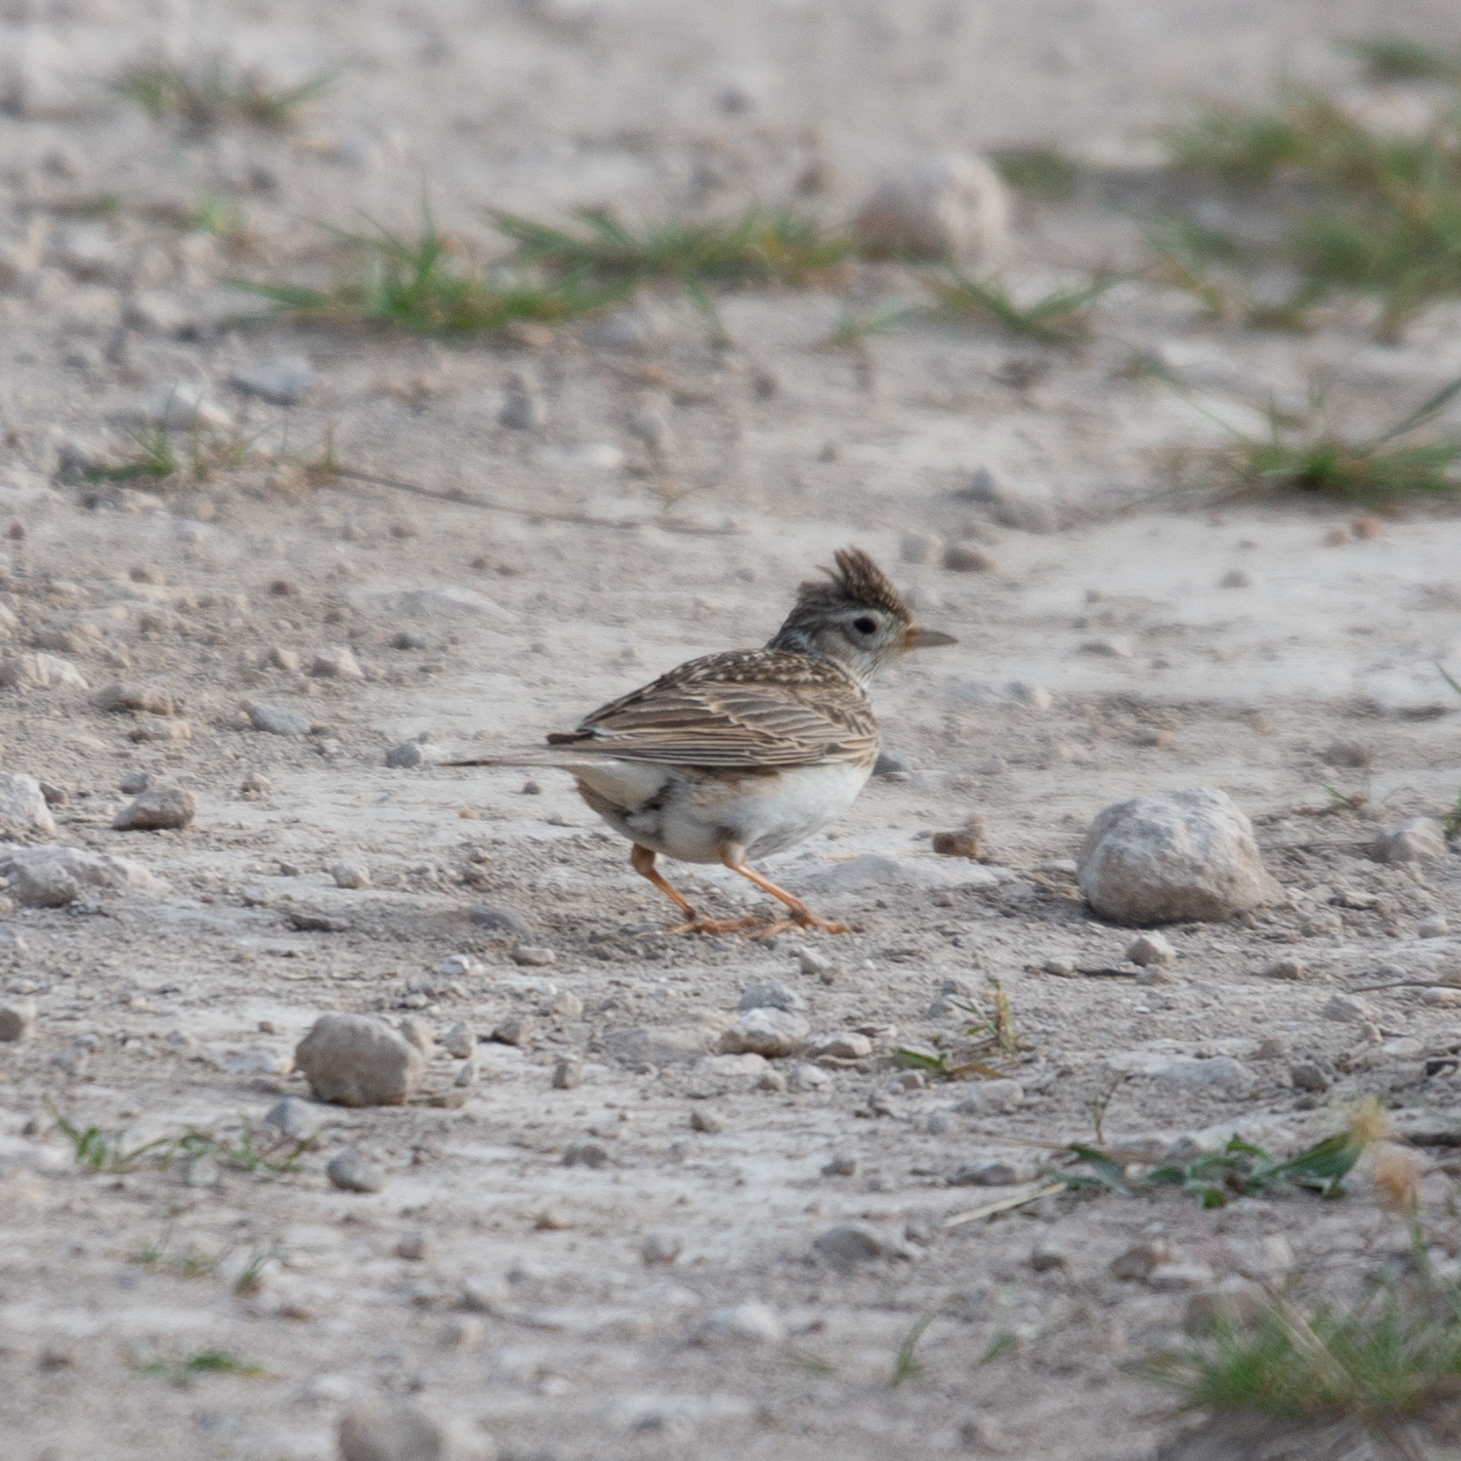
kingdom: Animalia
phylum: Chordata
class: Aves
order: Passeriformes
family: Alaudidae
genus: Alauda
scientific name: Alauda arvensis
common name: Eurasian skylark
